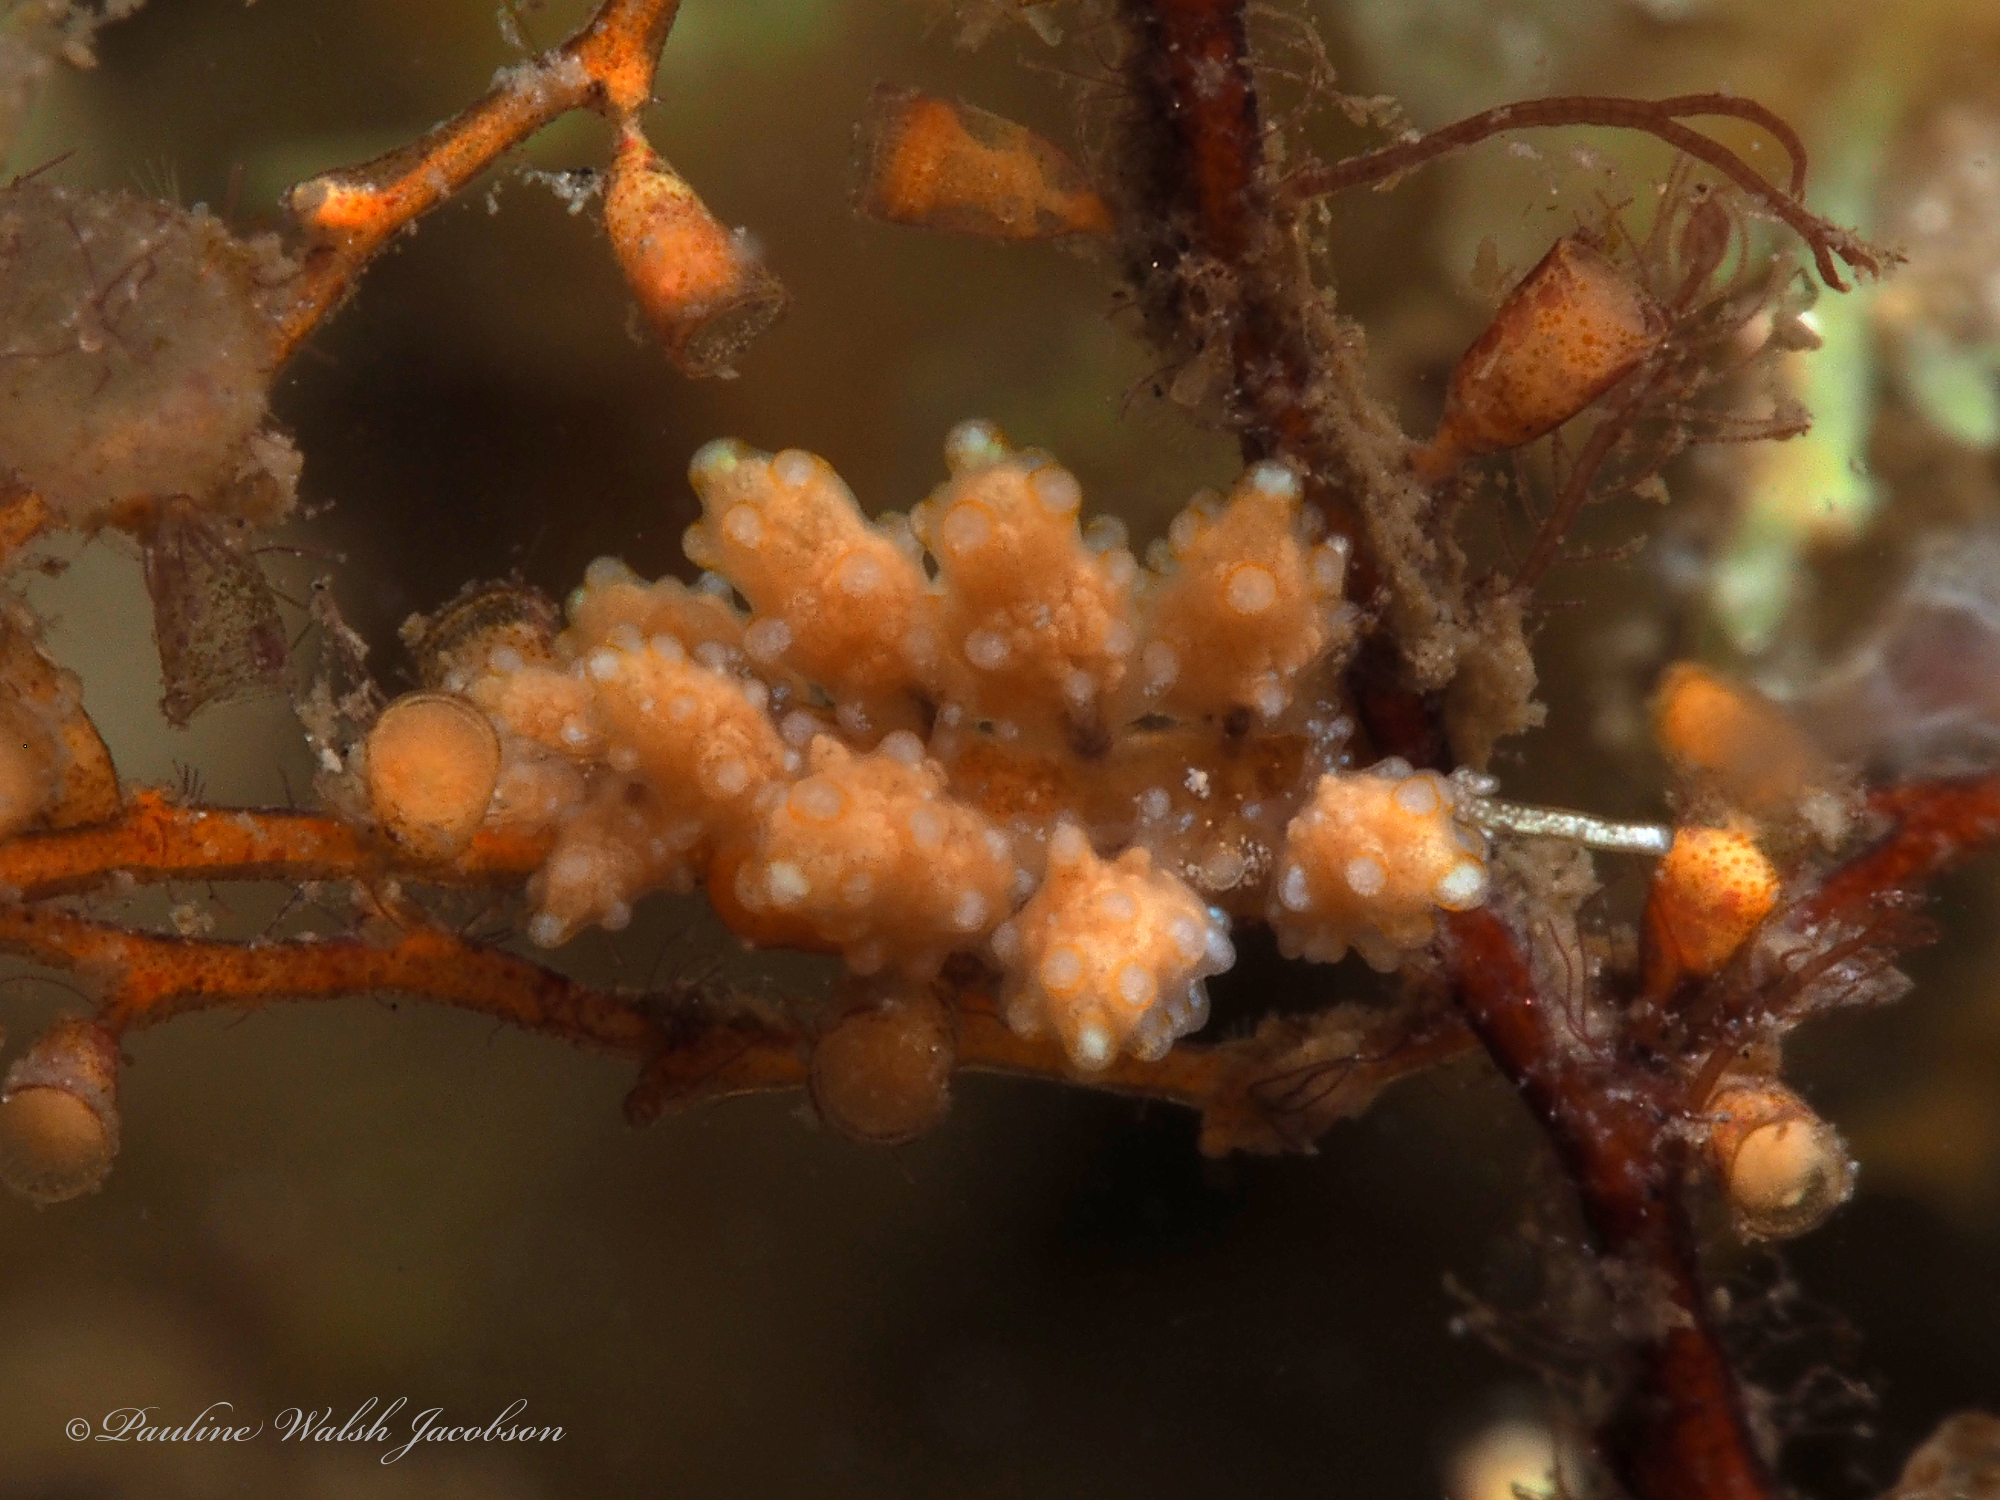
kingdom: Animalia
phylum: Mollusca
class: Gastropoda
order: Nudibranchia
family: Dotidae
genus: Doto
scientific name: Doto torrelavega
